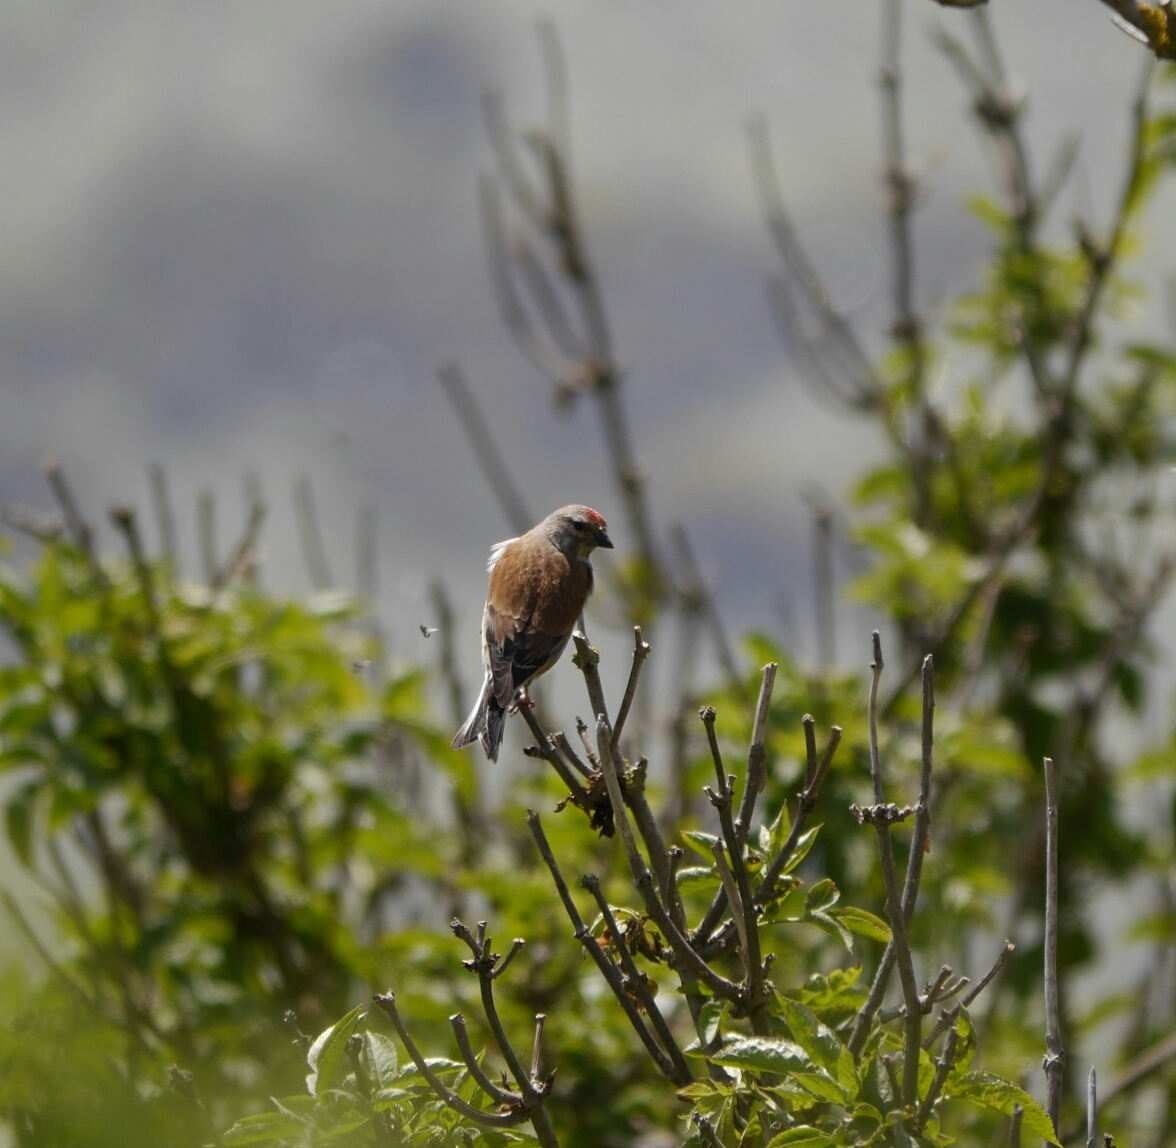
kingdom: Animalia
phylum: Chordata
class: Aves
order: Passeriformes
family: Fringillidae
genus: Linaria
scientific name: Linaria cannabina
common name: Common linnet
